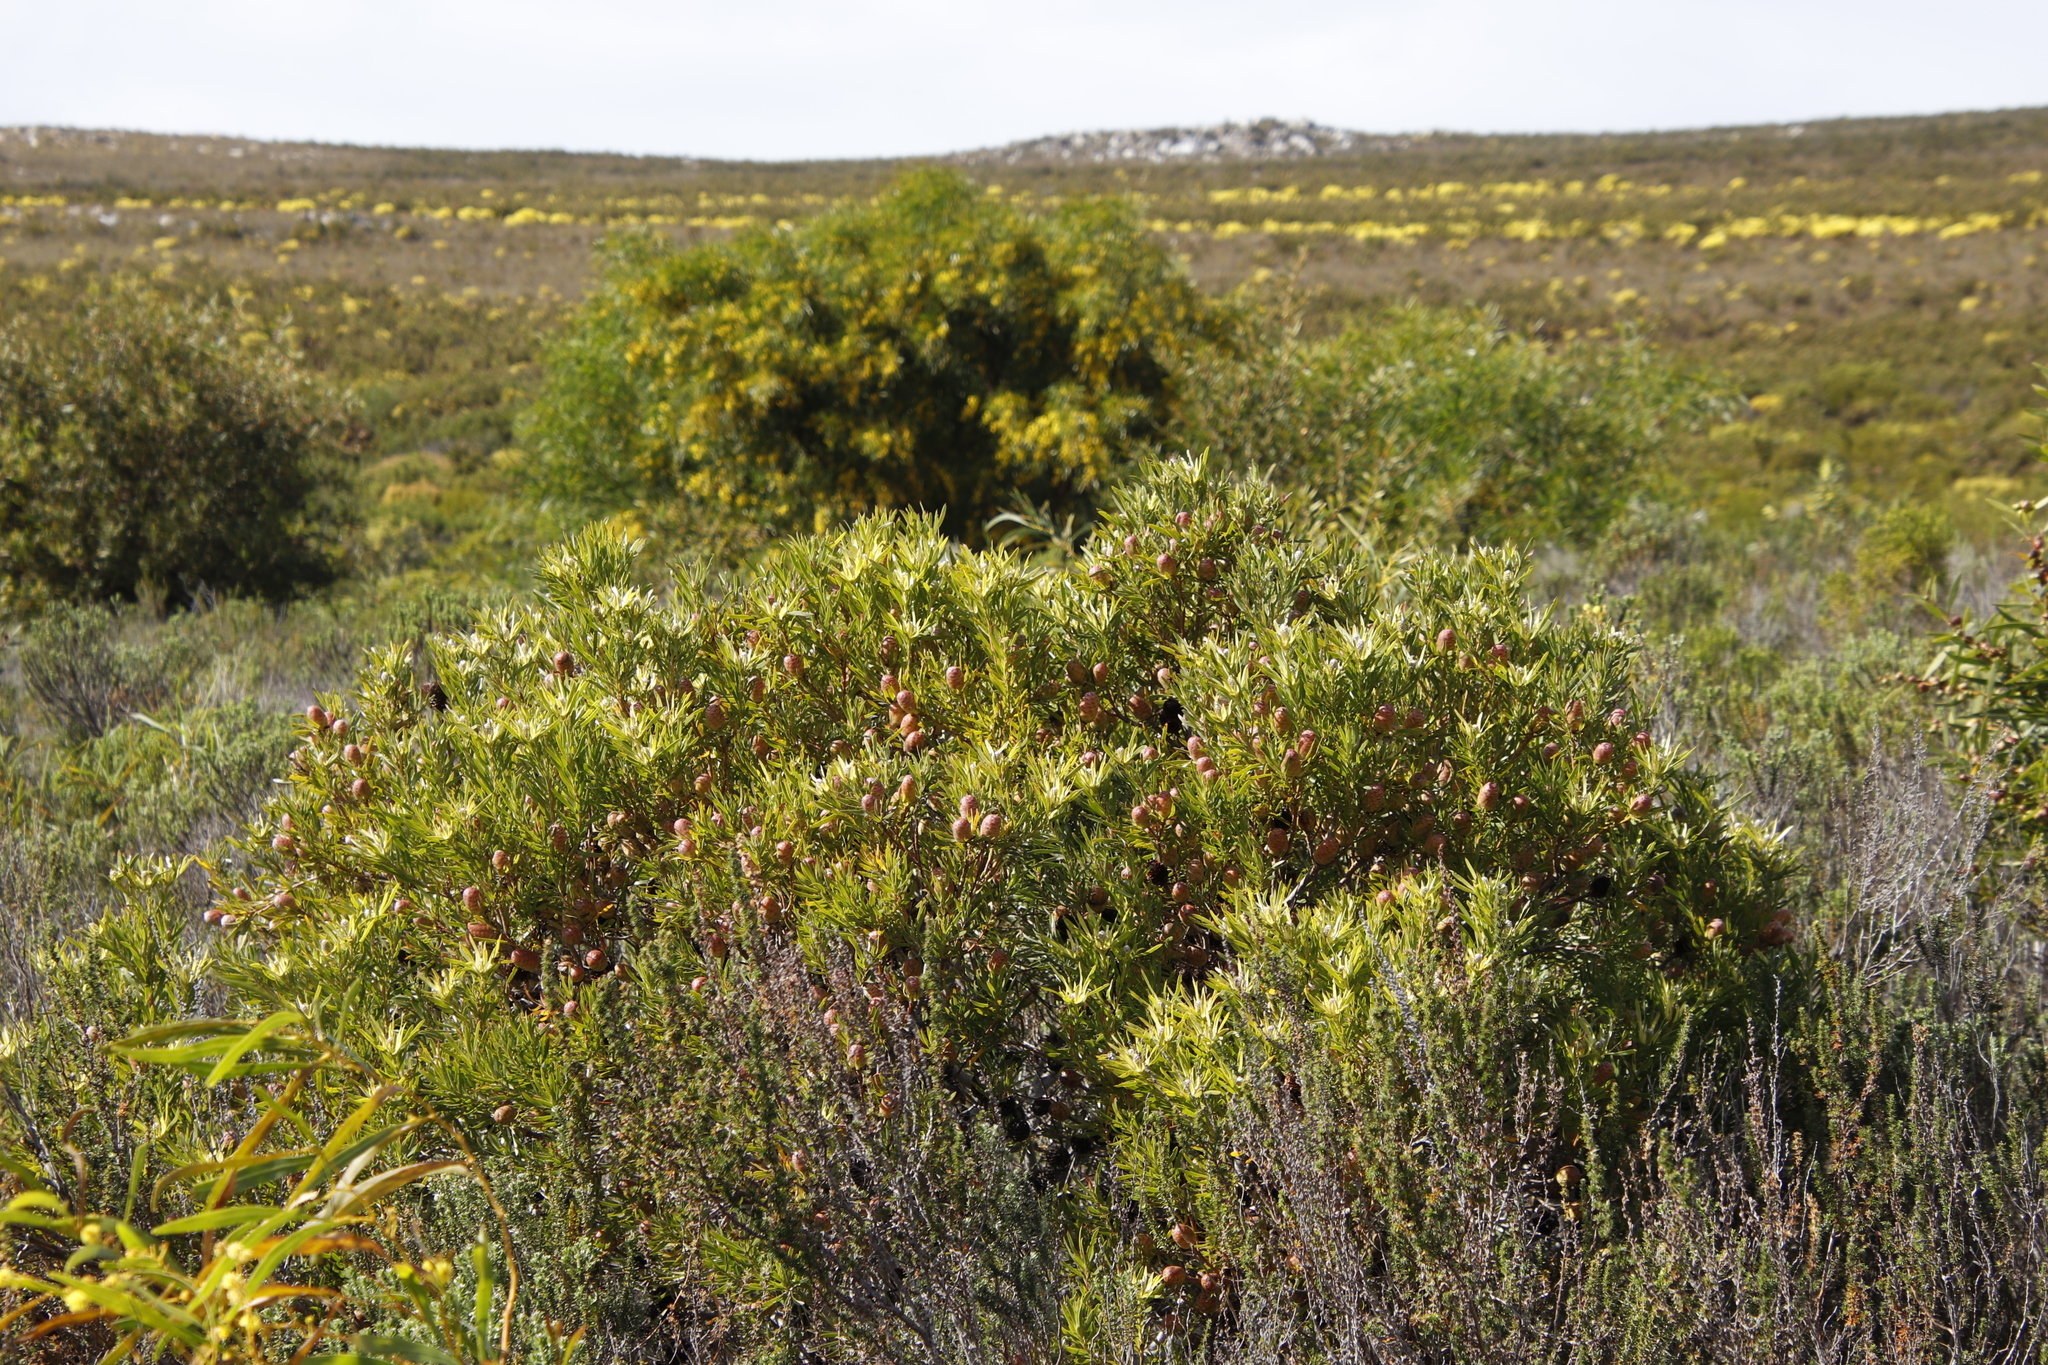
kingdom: Plantae
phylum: Tracheophyta
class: Magnoliopsida
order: Proteales
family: Proteaceae
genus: Leucadendron
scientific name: Leucadendron xanthoconus
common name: Sickle-leaf conebush
